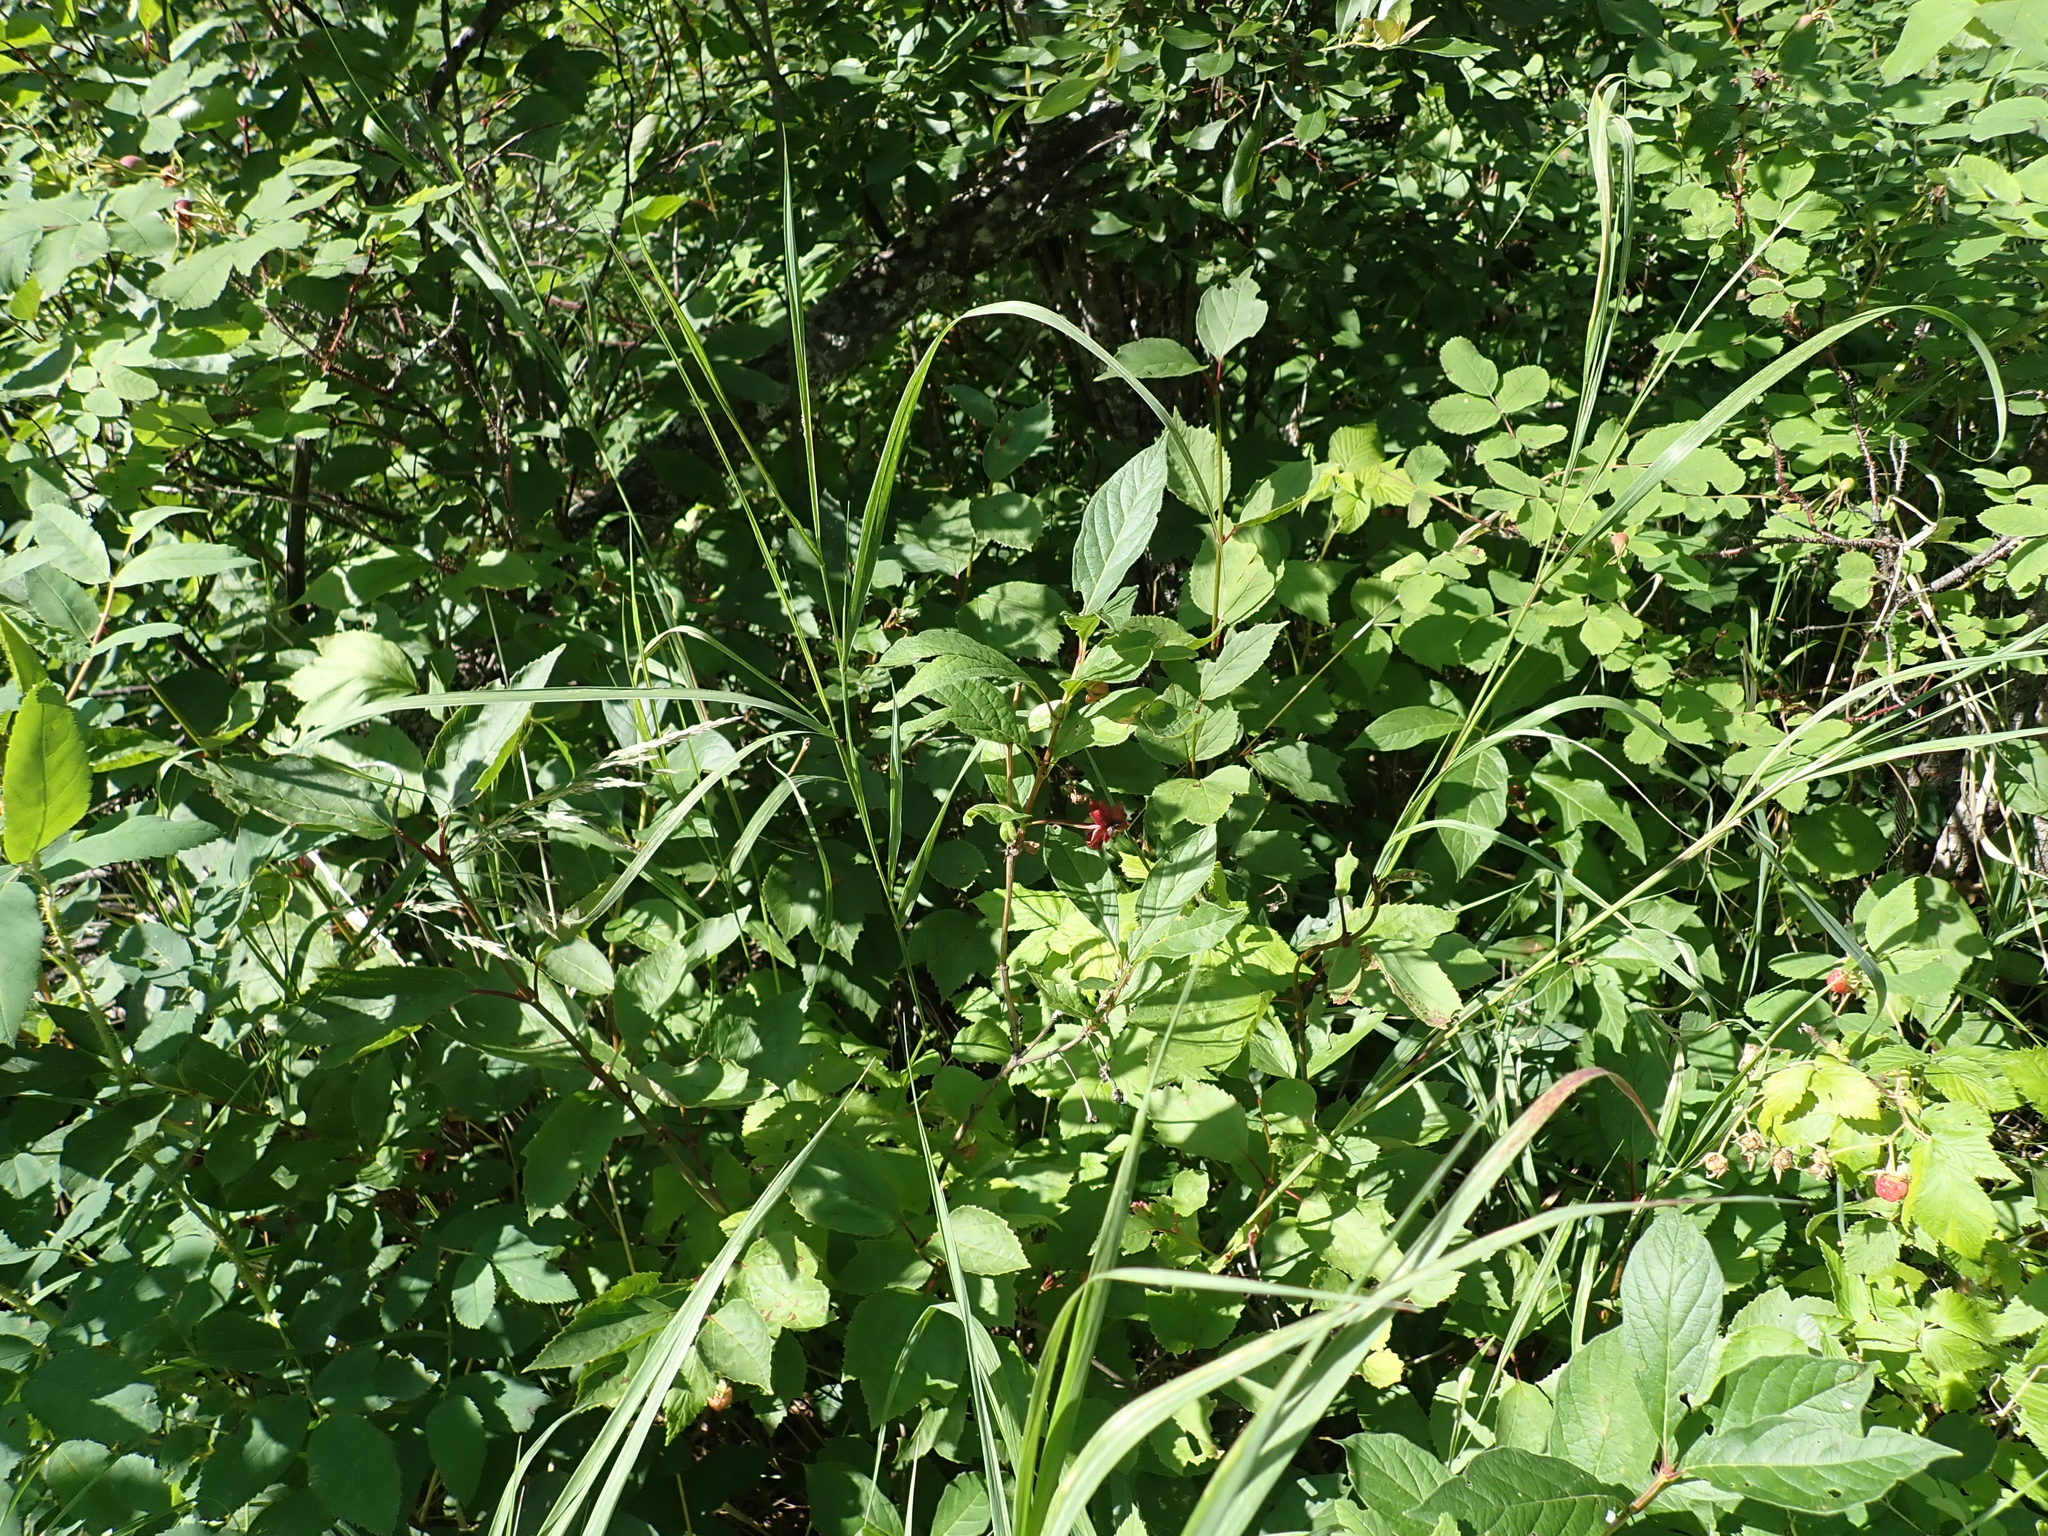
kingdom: Plantae
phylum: Tracheophyta
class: Magnoliopsida
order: Dipsacales
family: Caprifoliaceae
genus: Lonicera
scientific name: Lonicera involucrata
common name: Californian honeysuckle
